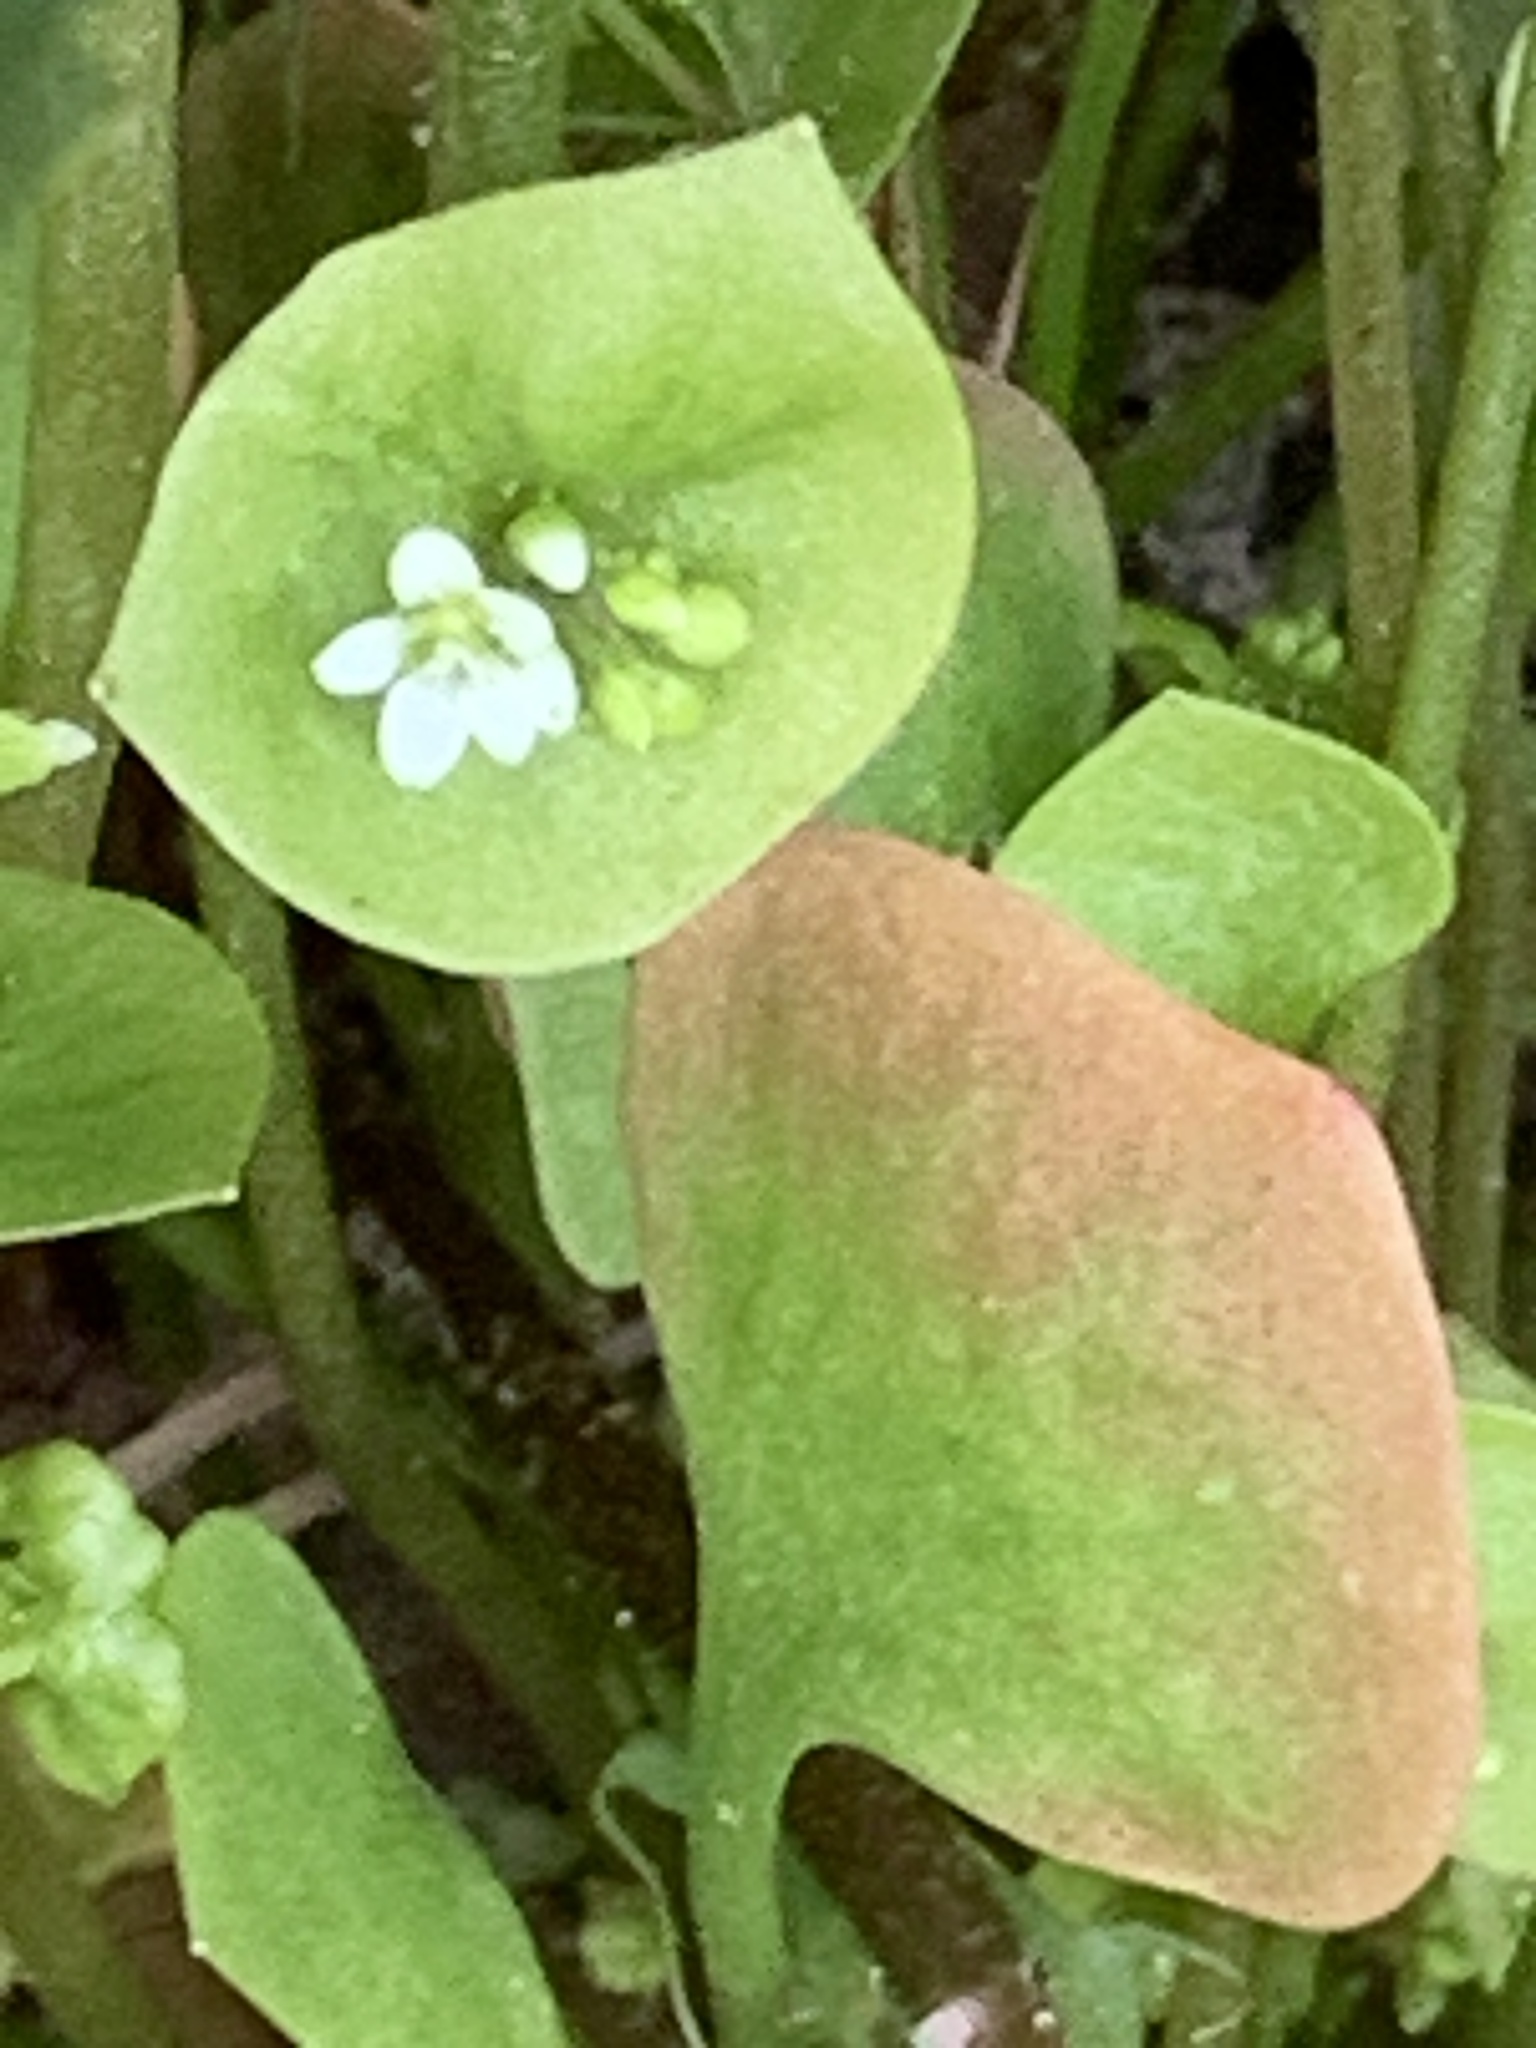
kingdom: Plantae
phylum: Tracheophyta
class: Magnoliopsida
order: Caryophyllales
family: Montiaceae
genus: Claytonia
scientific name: Claytonia perfoliata
